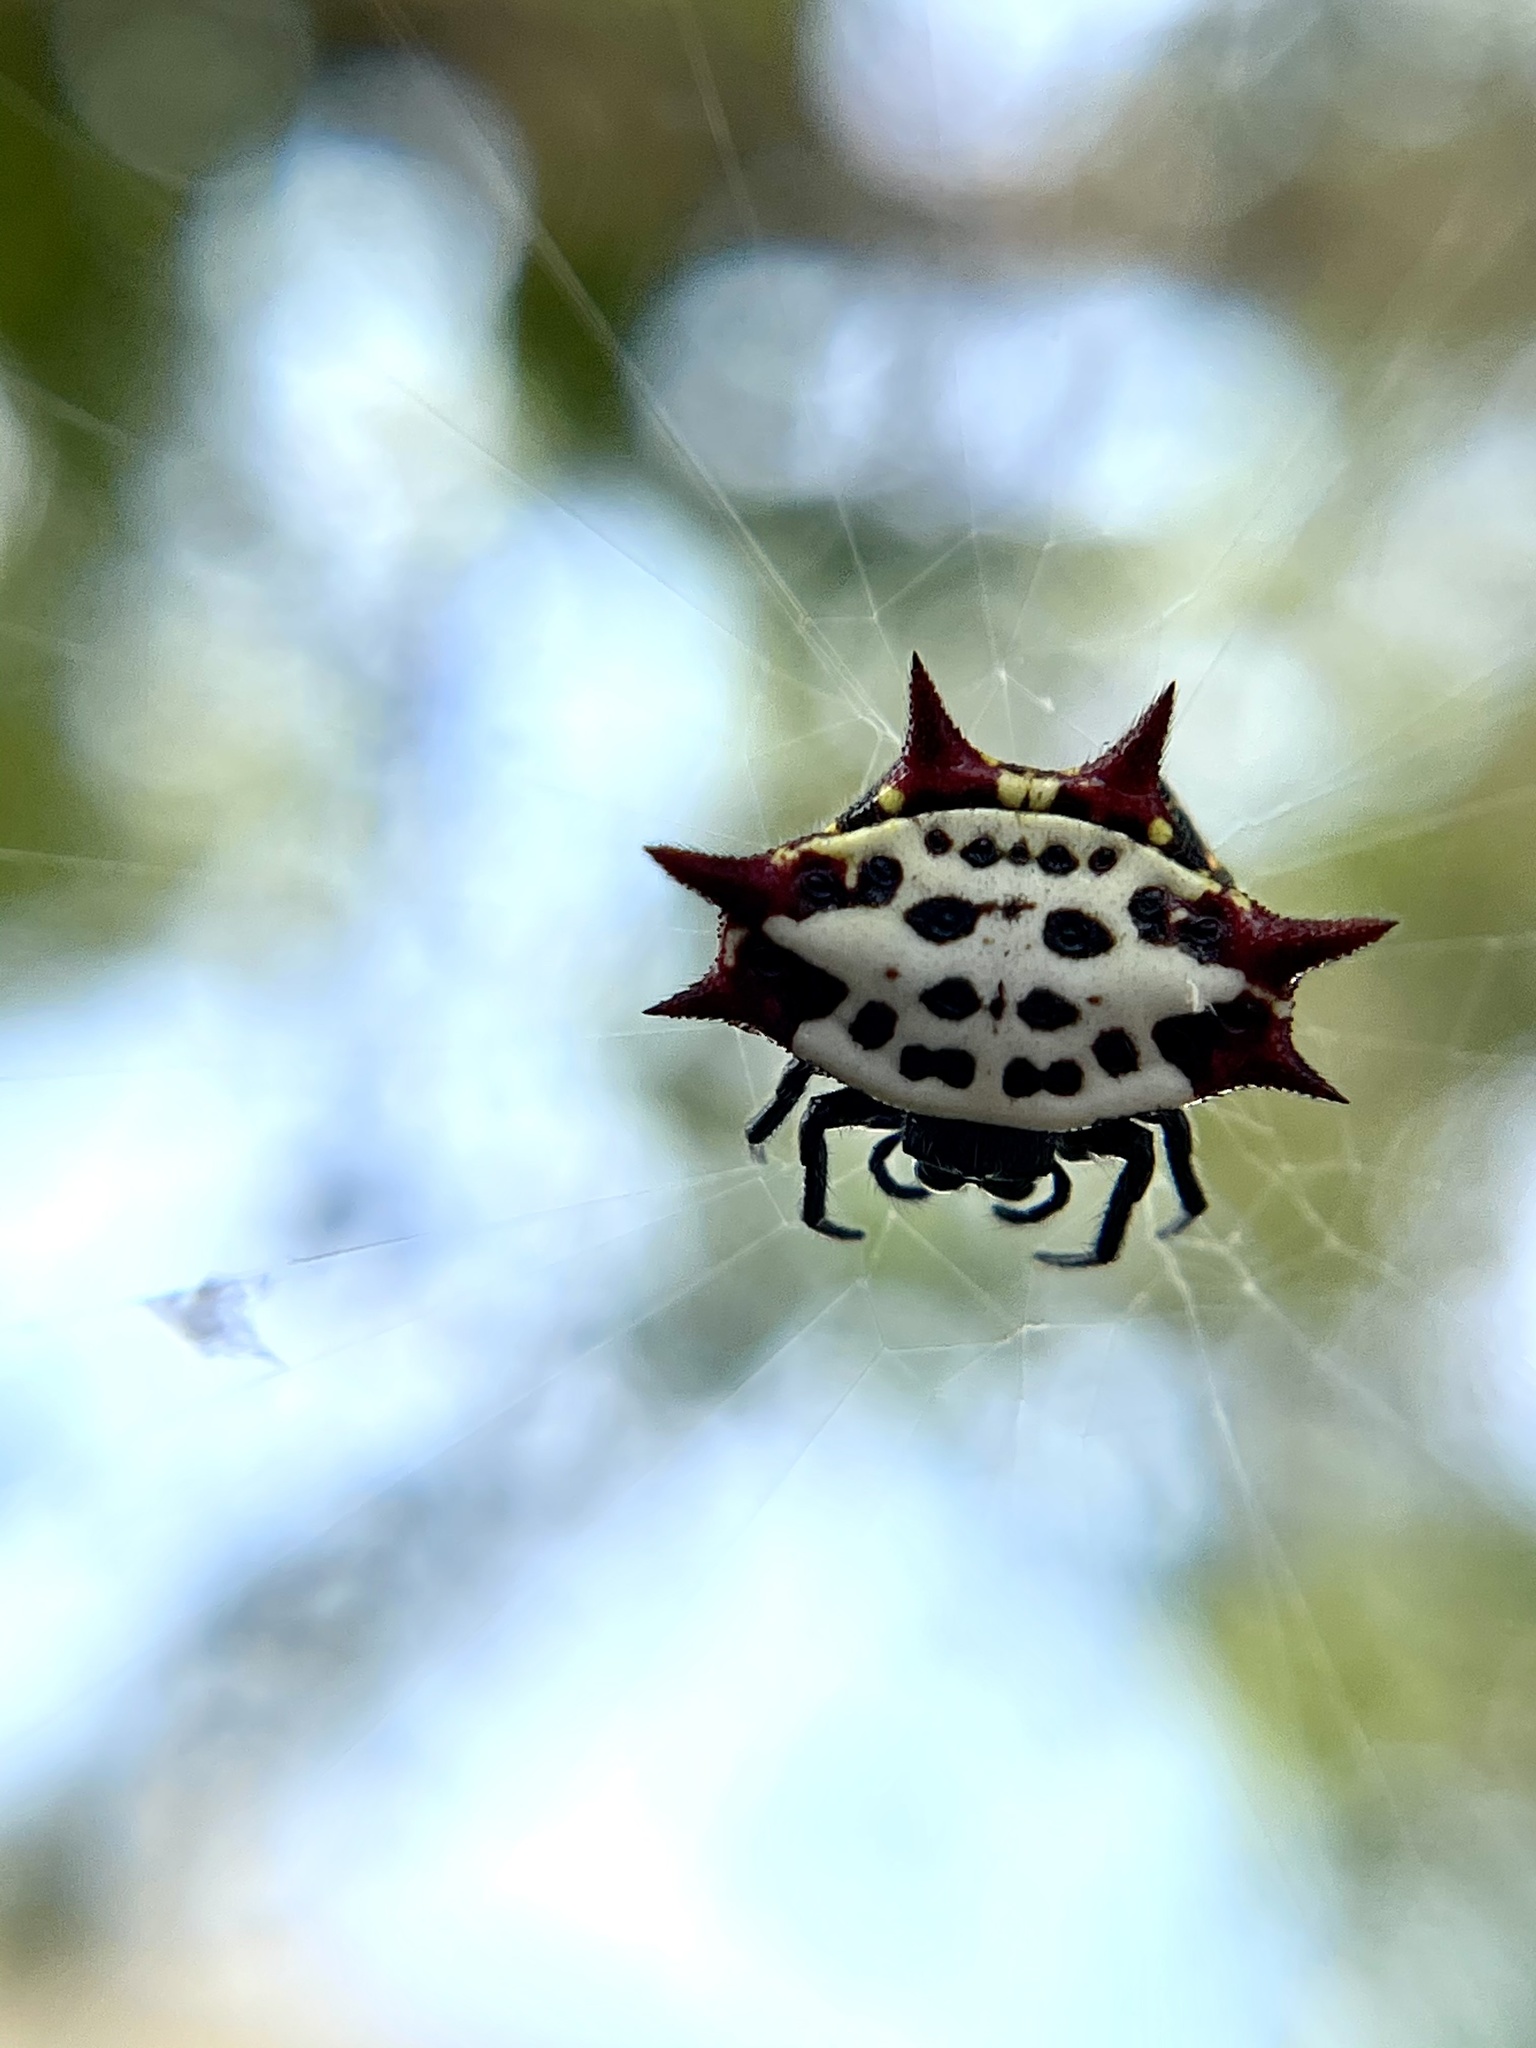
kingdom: Animalia
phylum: Arthropoda
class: Arachnida
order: Araneae
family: Araneidae
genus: Gasteracantha
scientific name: Gasteracantha cancriformis
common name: Orb weavers
